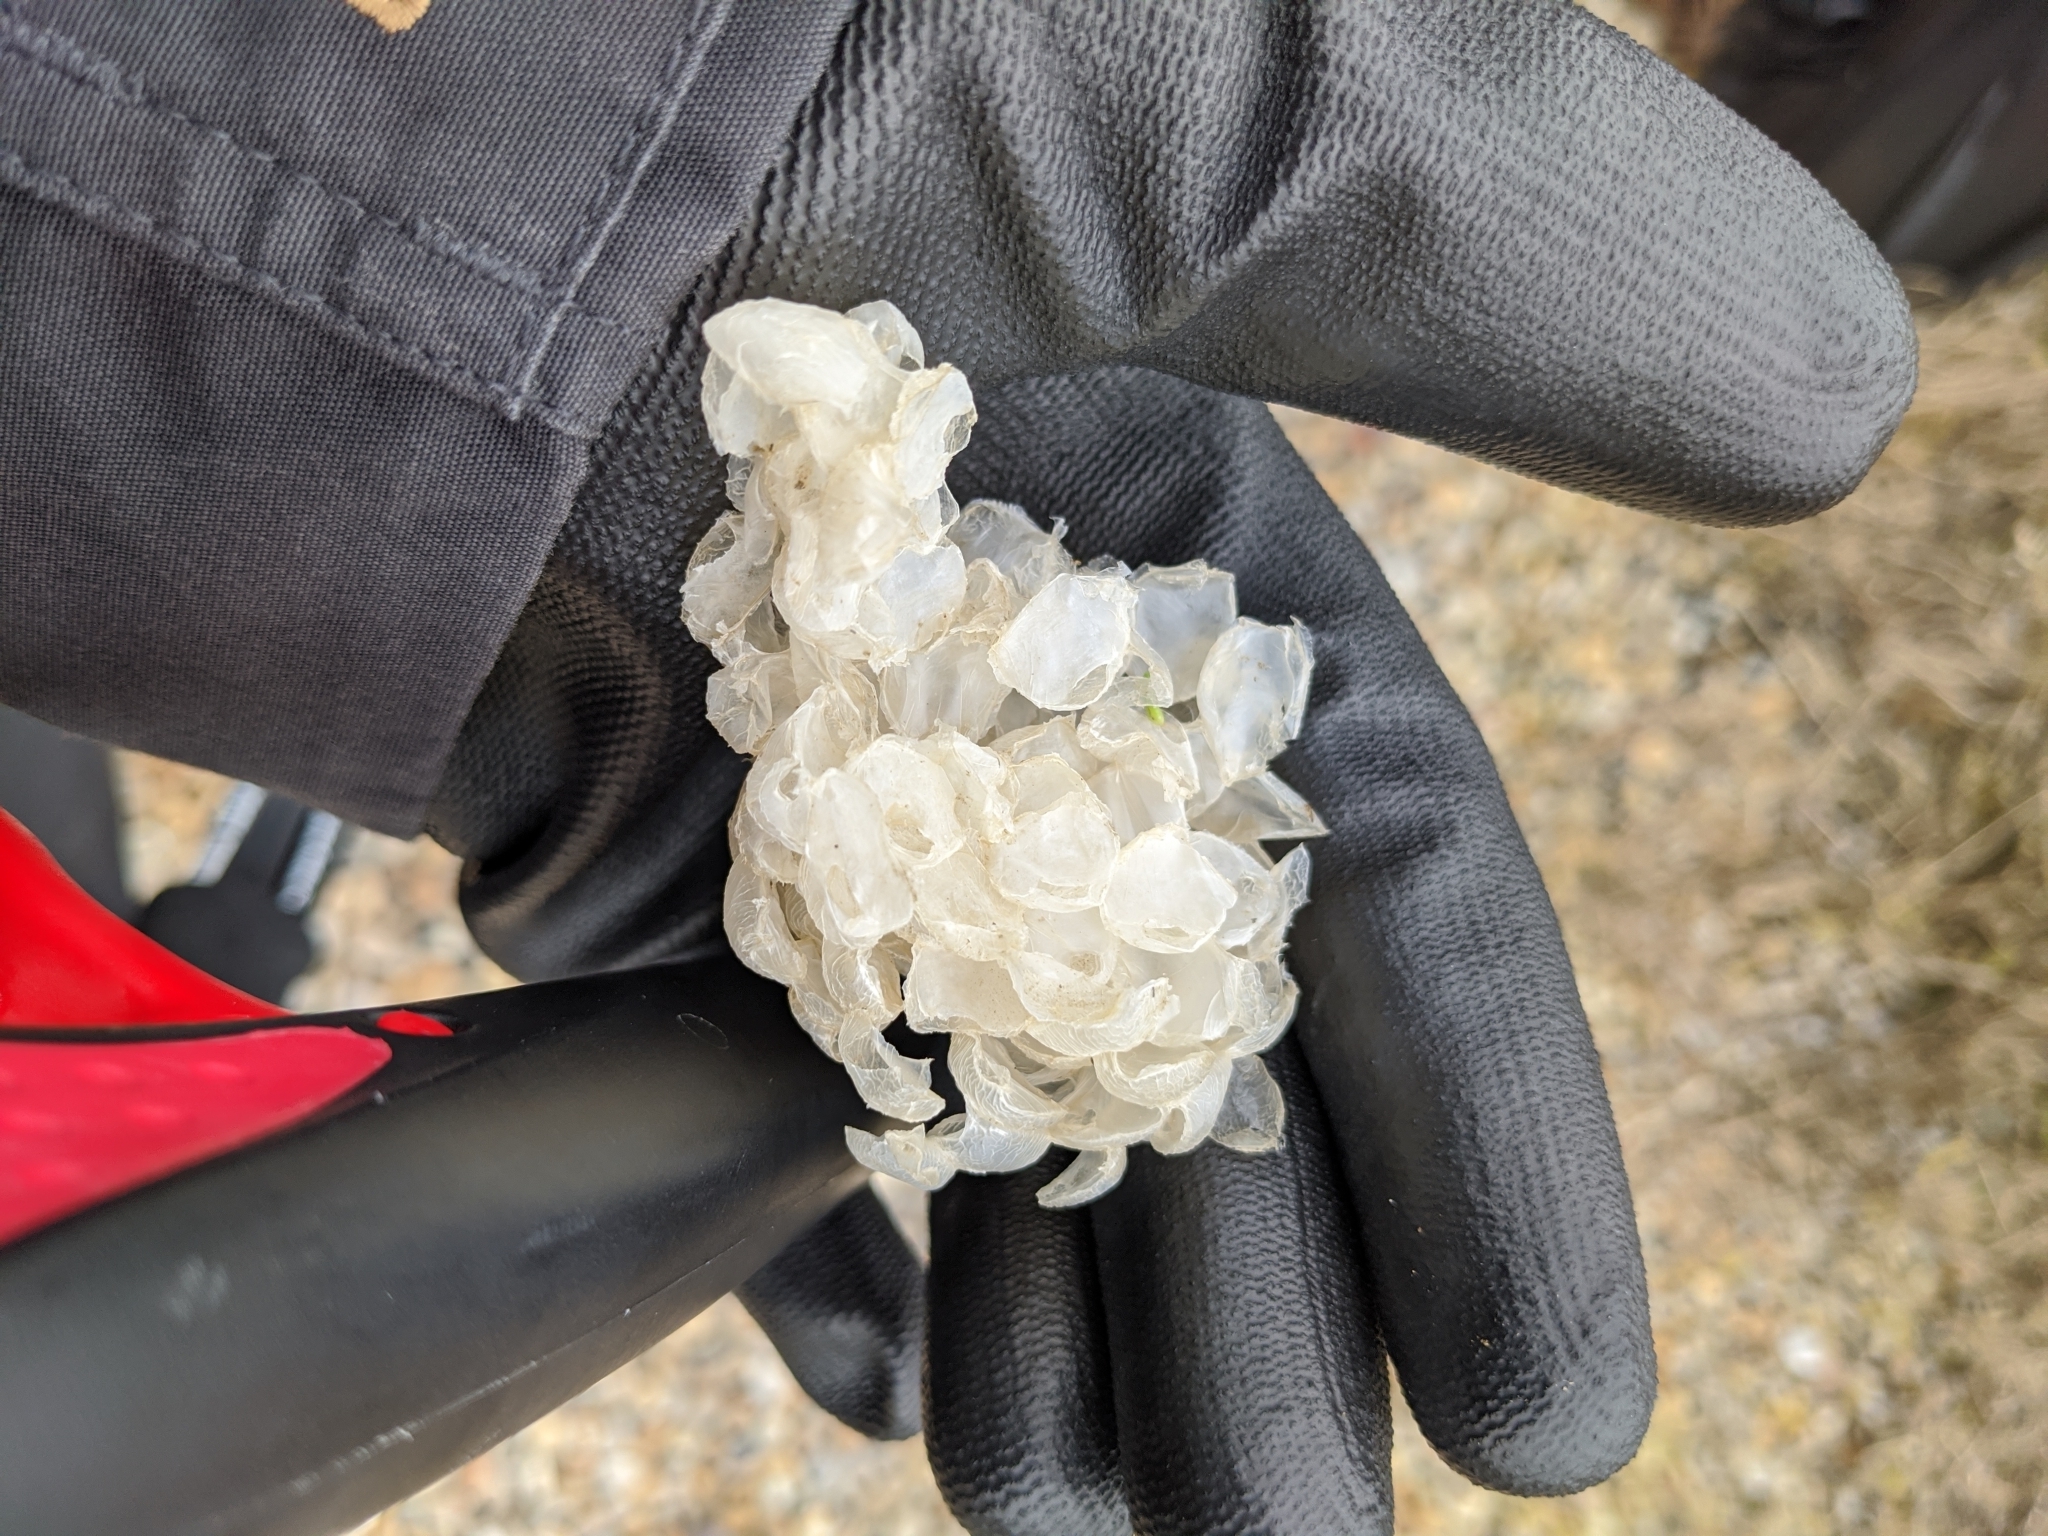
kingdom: Animalia
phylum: Mollusca
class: Gastropoda
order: Neogastropoda
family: Buccinidae
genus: Buccinum
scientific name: Buccinum undatum
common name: Common whelk
